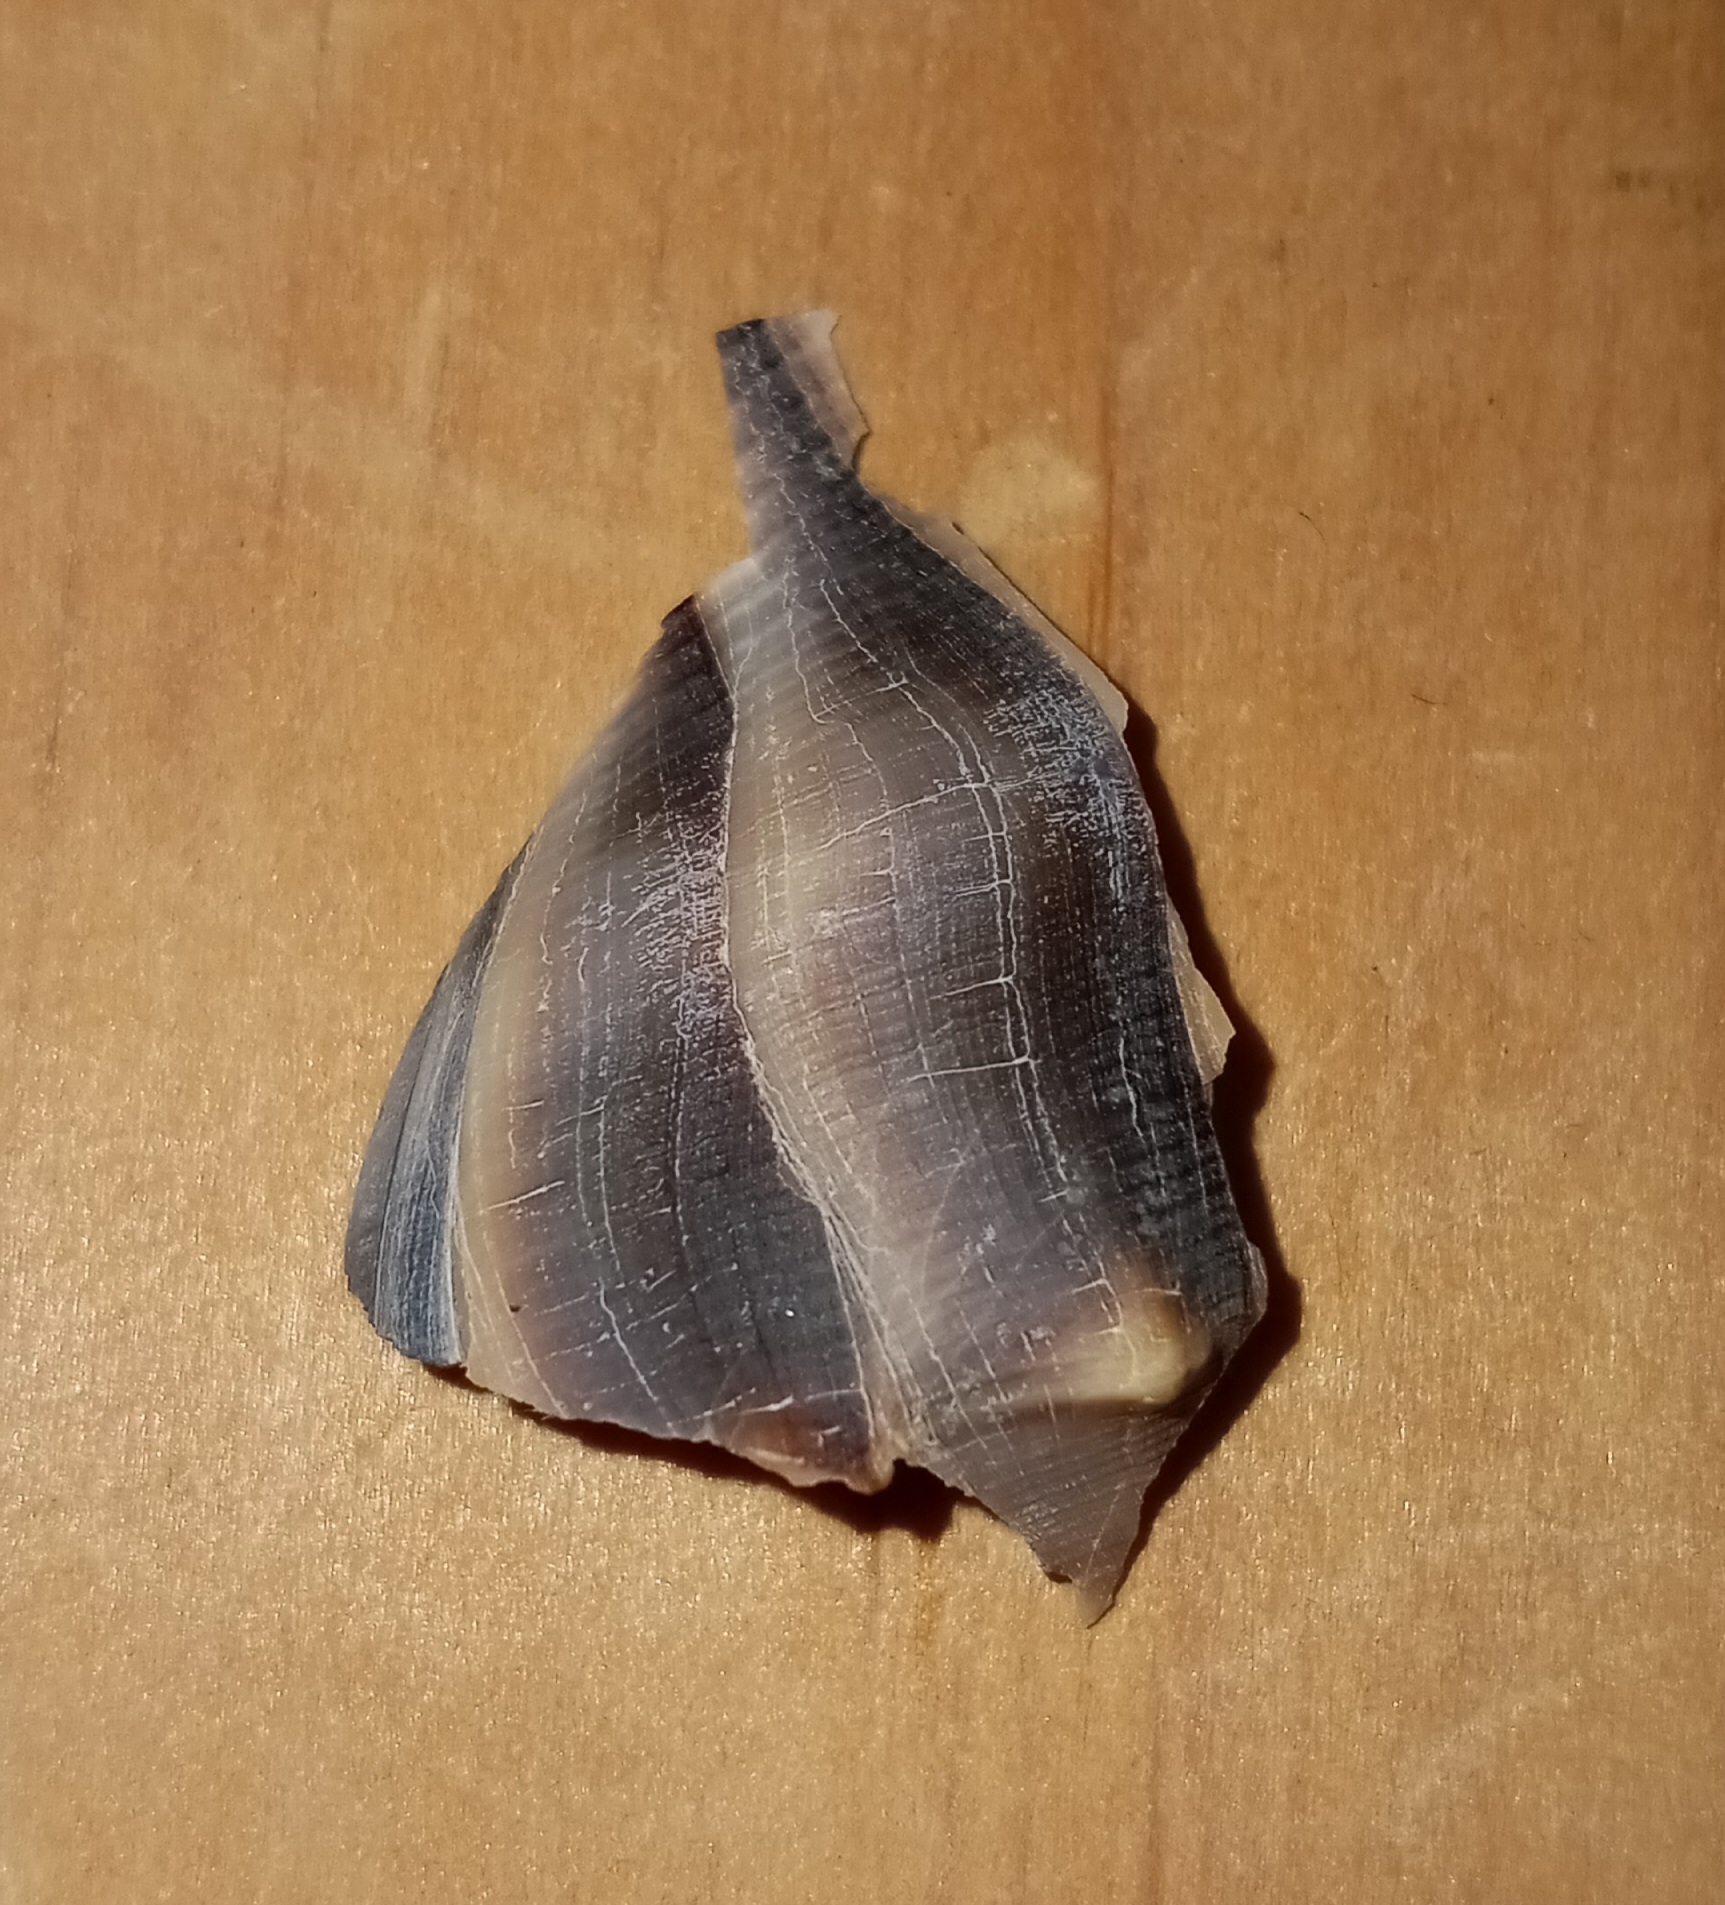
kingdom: Animalia
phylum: Mollusca
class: Gastropoda
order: Neogastropoda
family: Busyconidae
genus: Busycon
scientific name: Busycon carica
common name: Knobbed whelk
